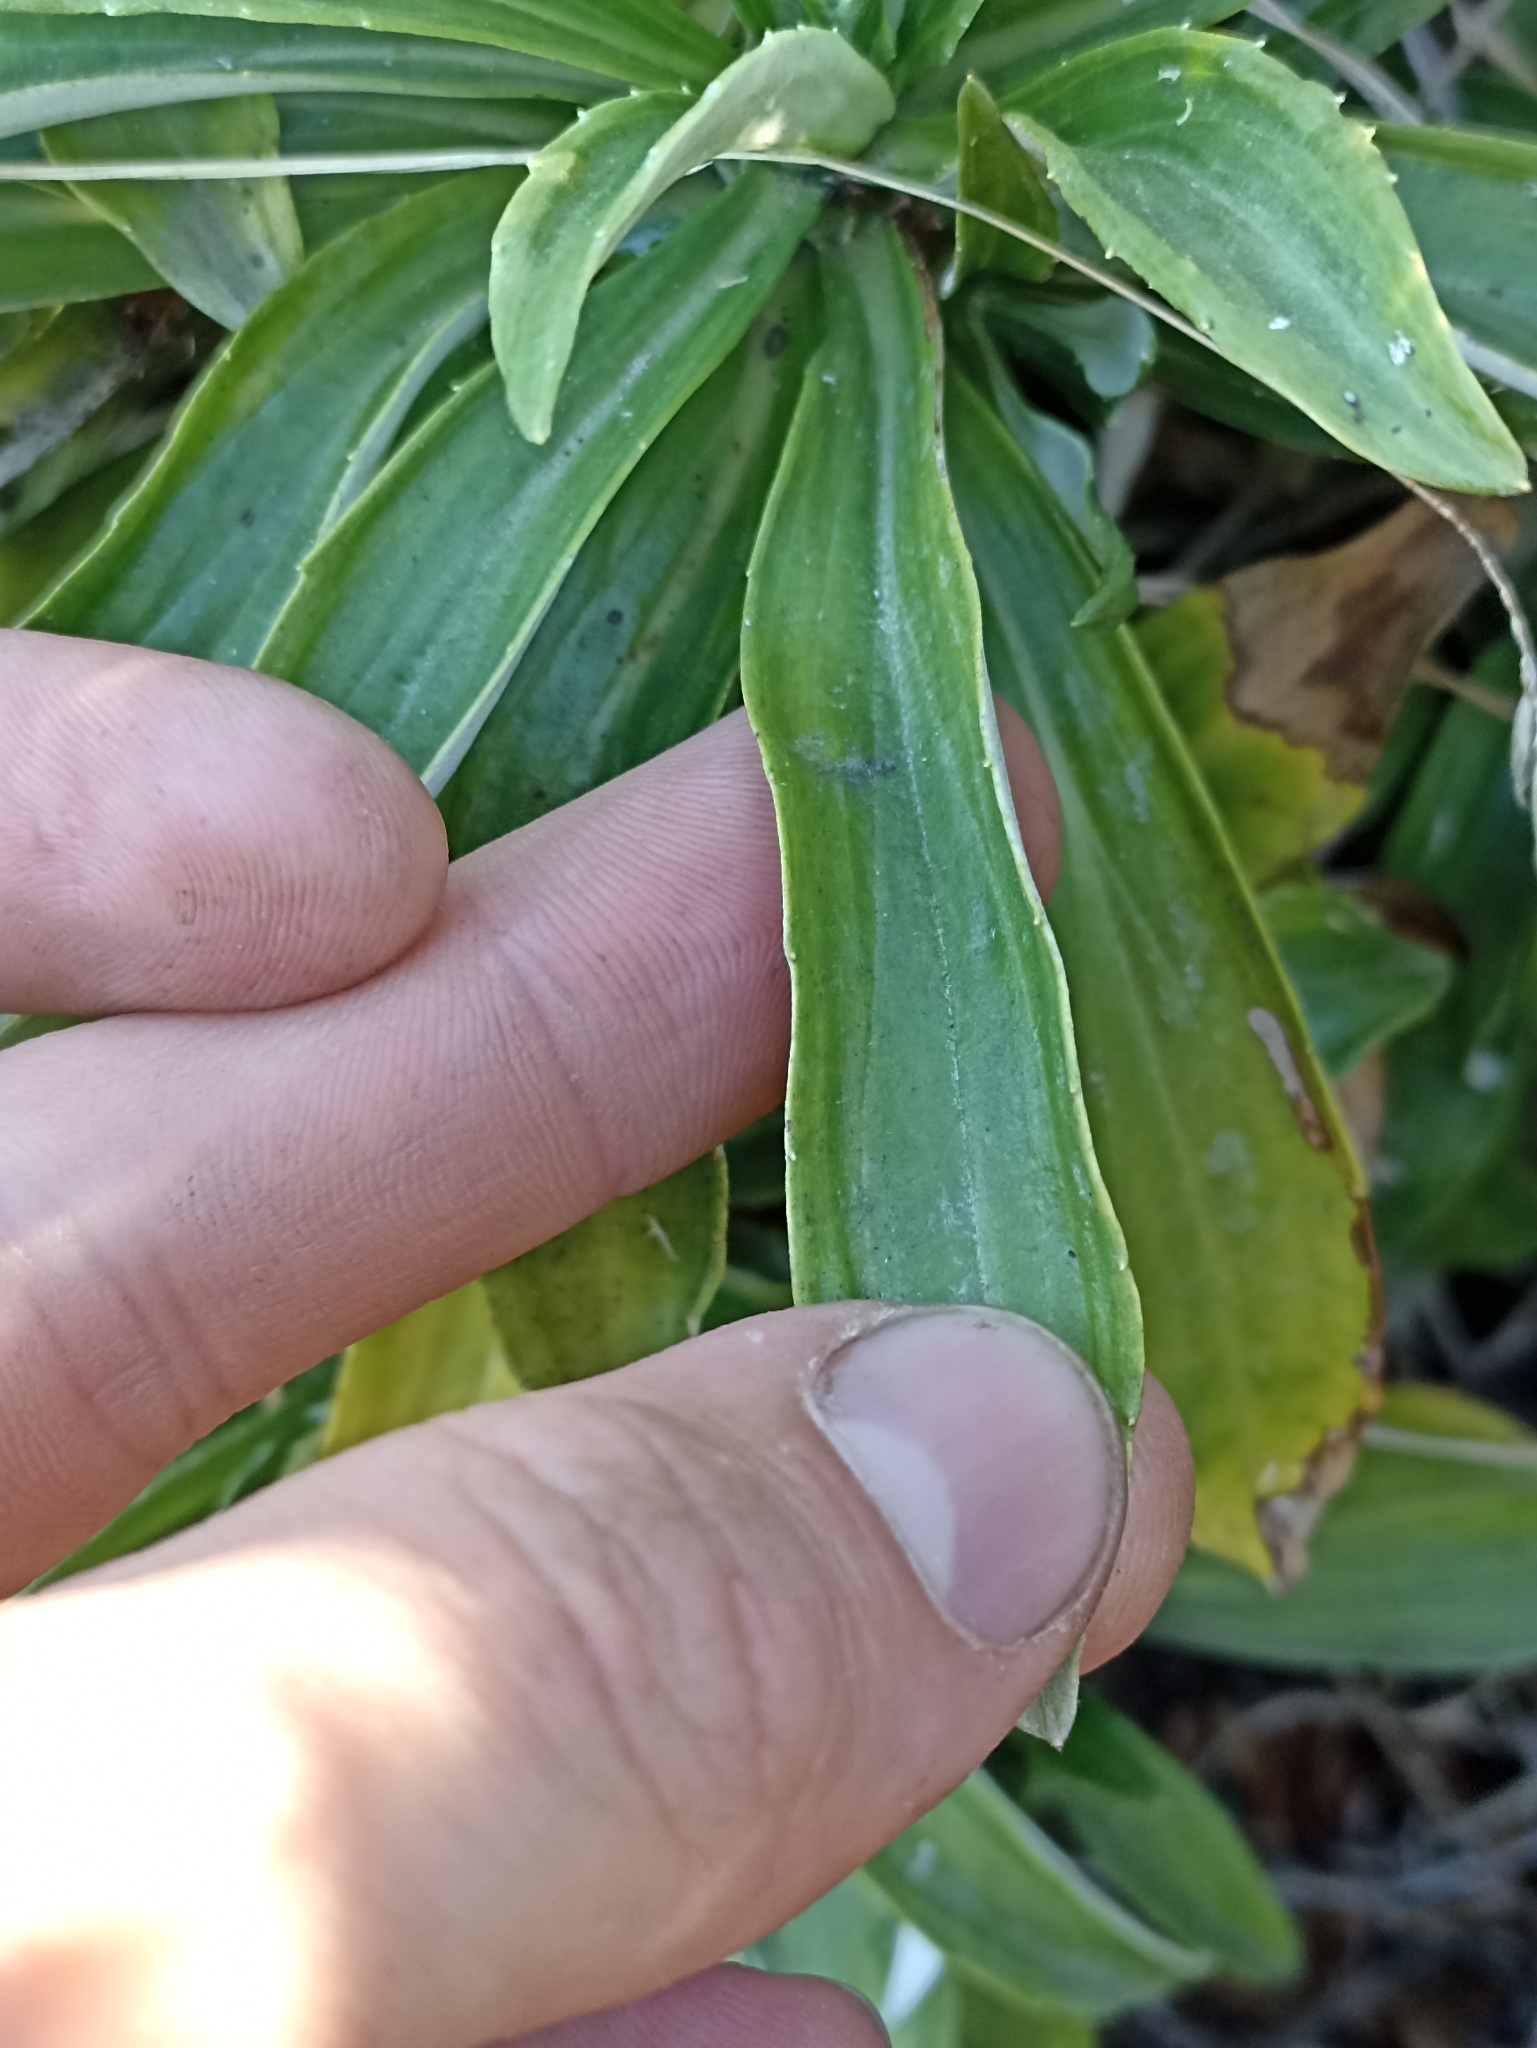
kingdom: Plantae
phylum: Tracheophyta
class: Magnoliopsida
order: Asterales
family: Asteraceae
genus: Celmisia
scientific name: Celmisia lindsayi
